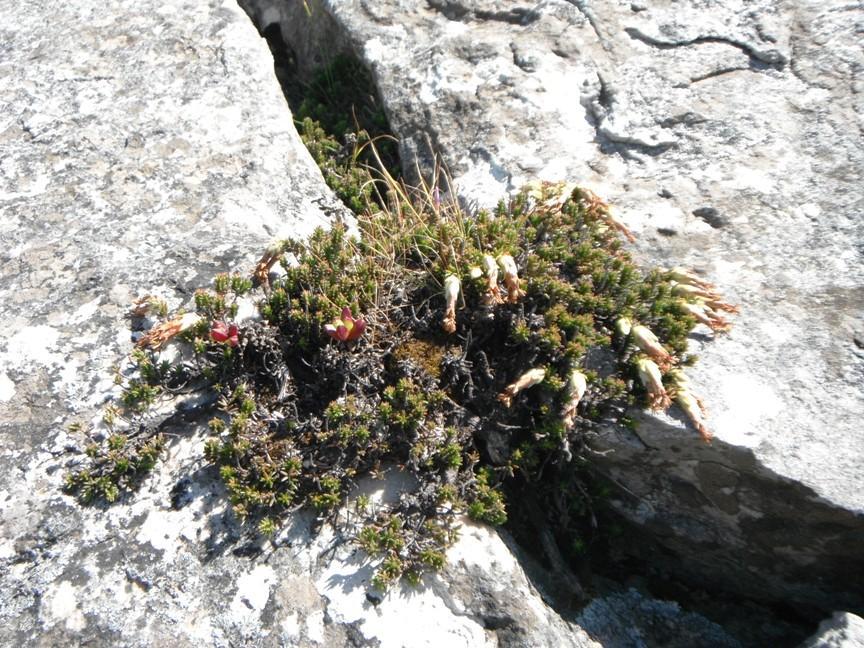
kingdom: Plantae
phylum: Tracheophyta
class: Magnoliopsida
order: Ericales
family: Ericaceae
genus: Erica
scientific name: Erica banksia
